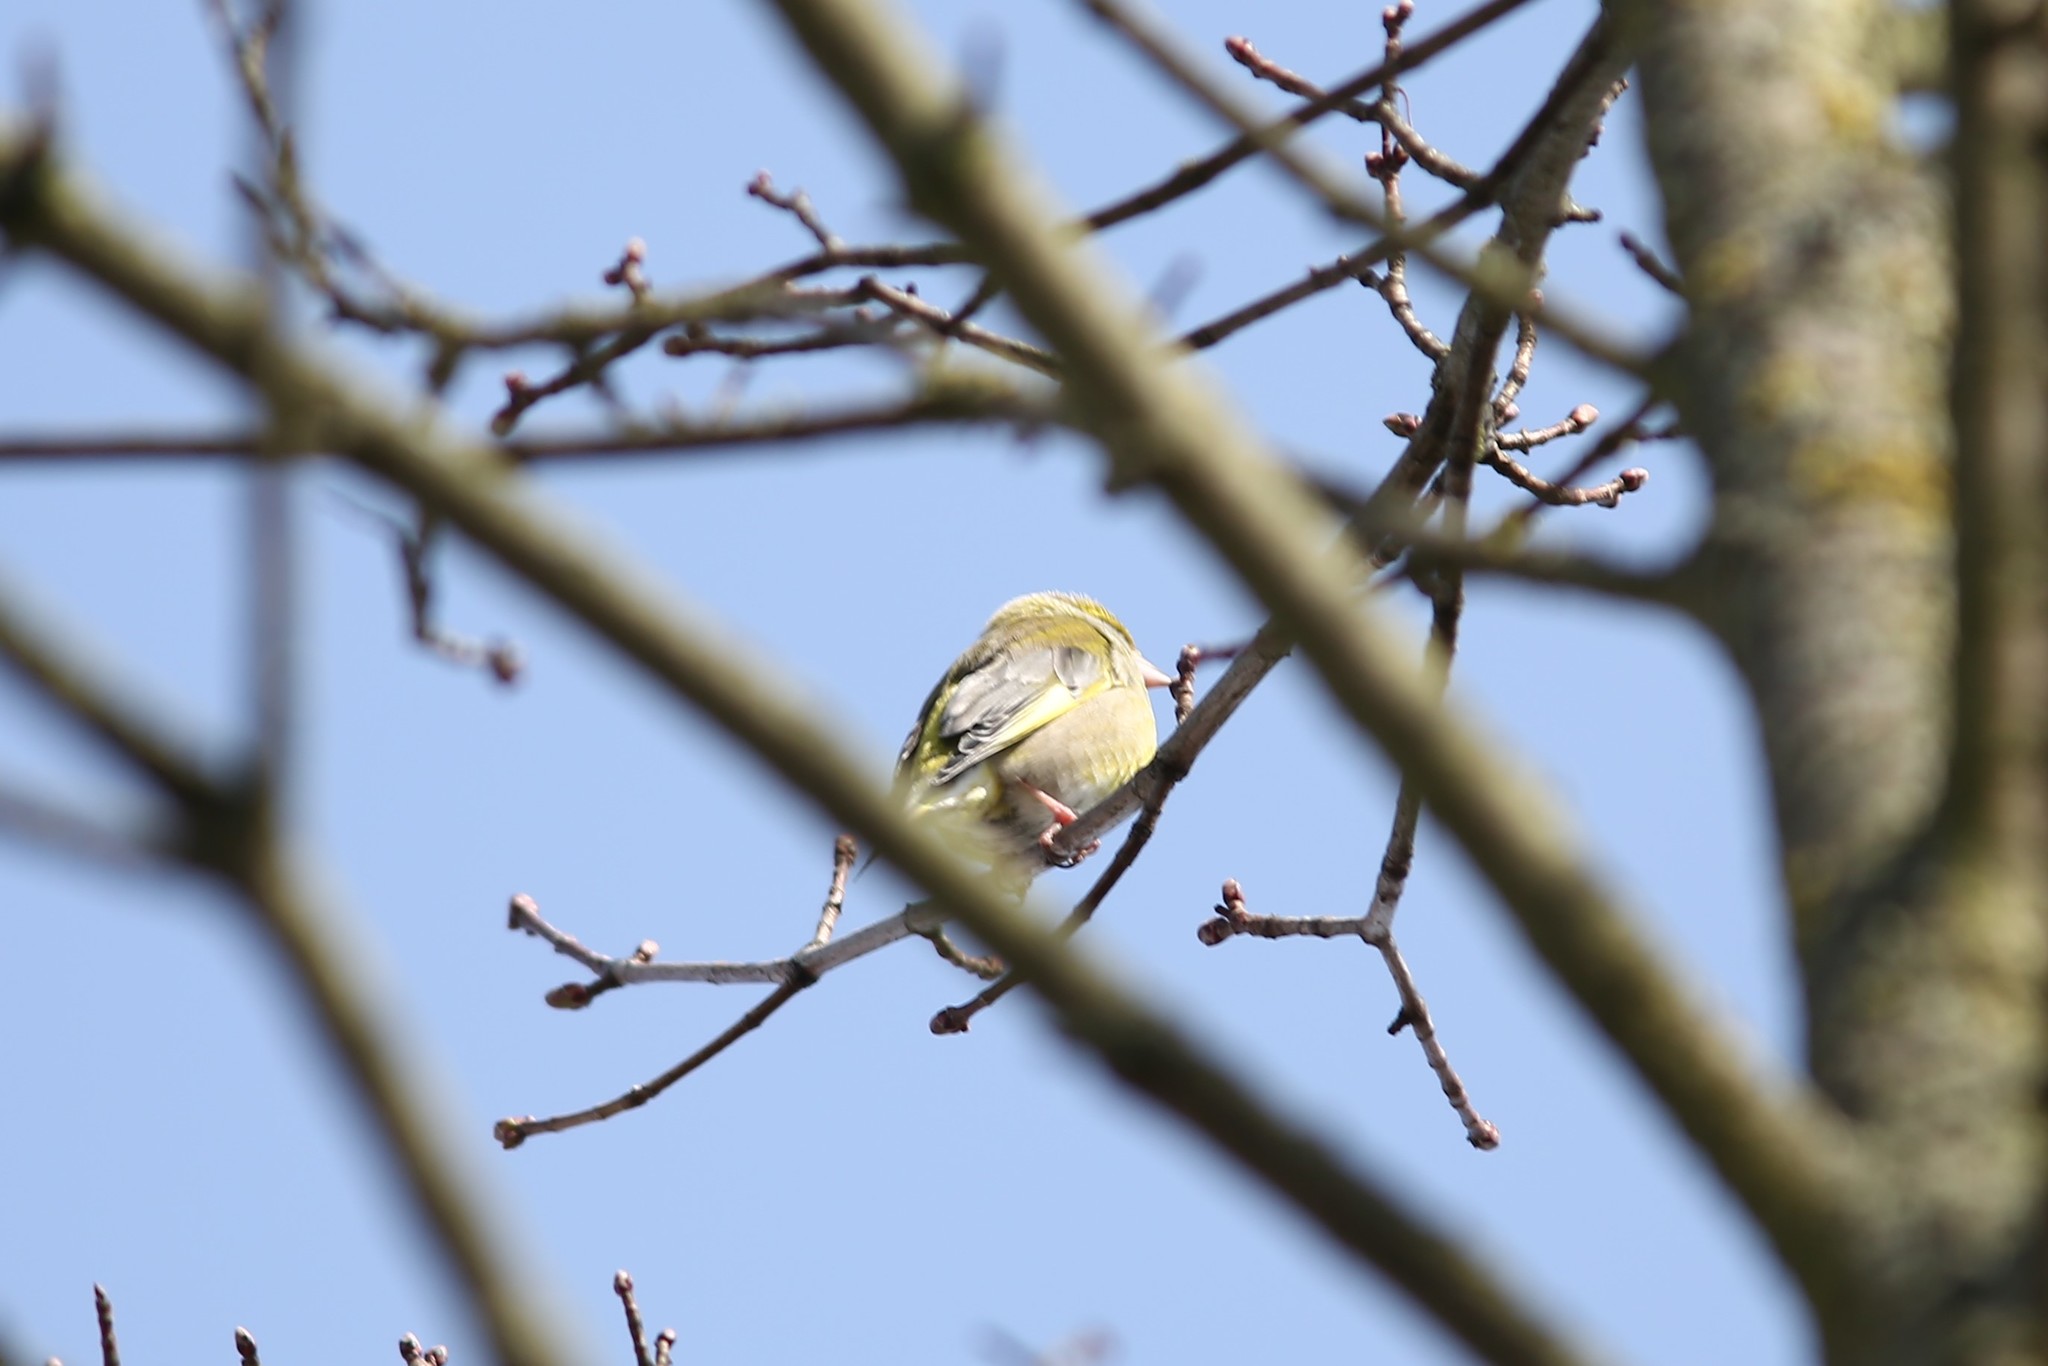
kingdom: Plantae
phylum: Tracheophyta
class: Liliopsida
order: Poales
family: Poaceae
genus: Chloris
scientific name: Chloris chloris
